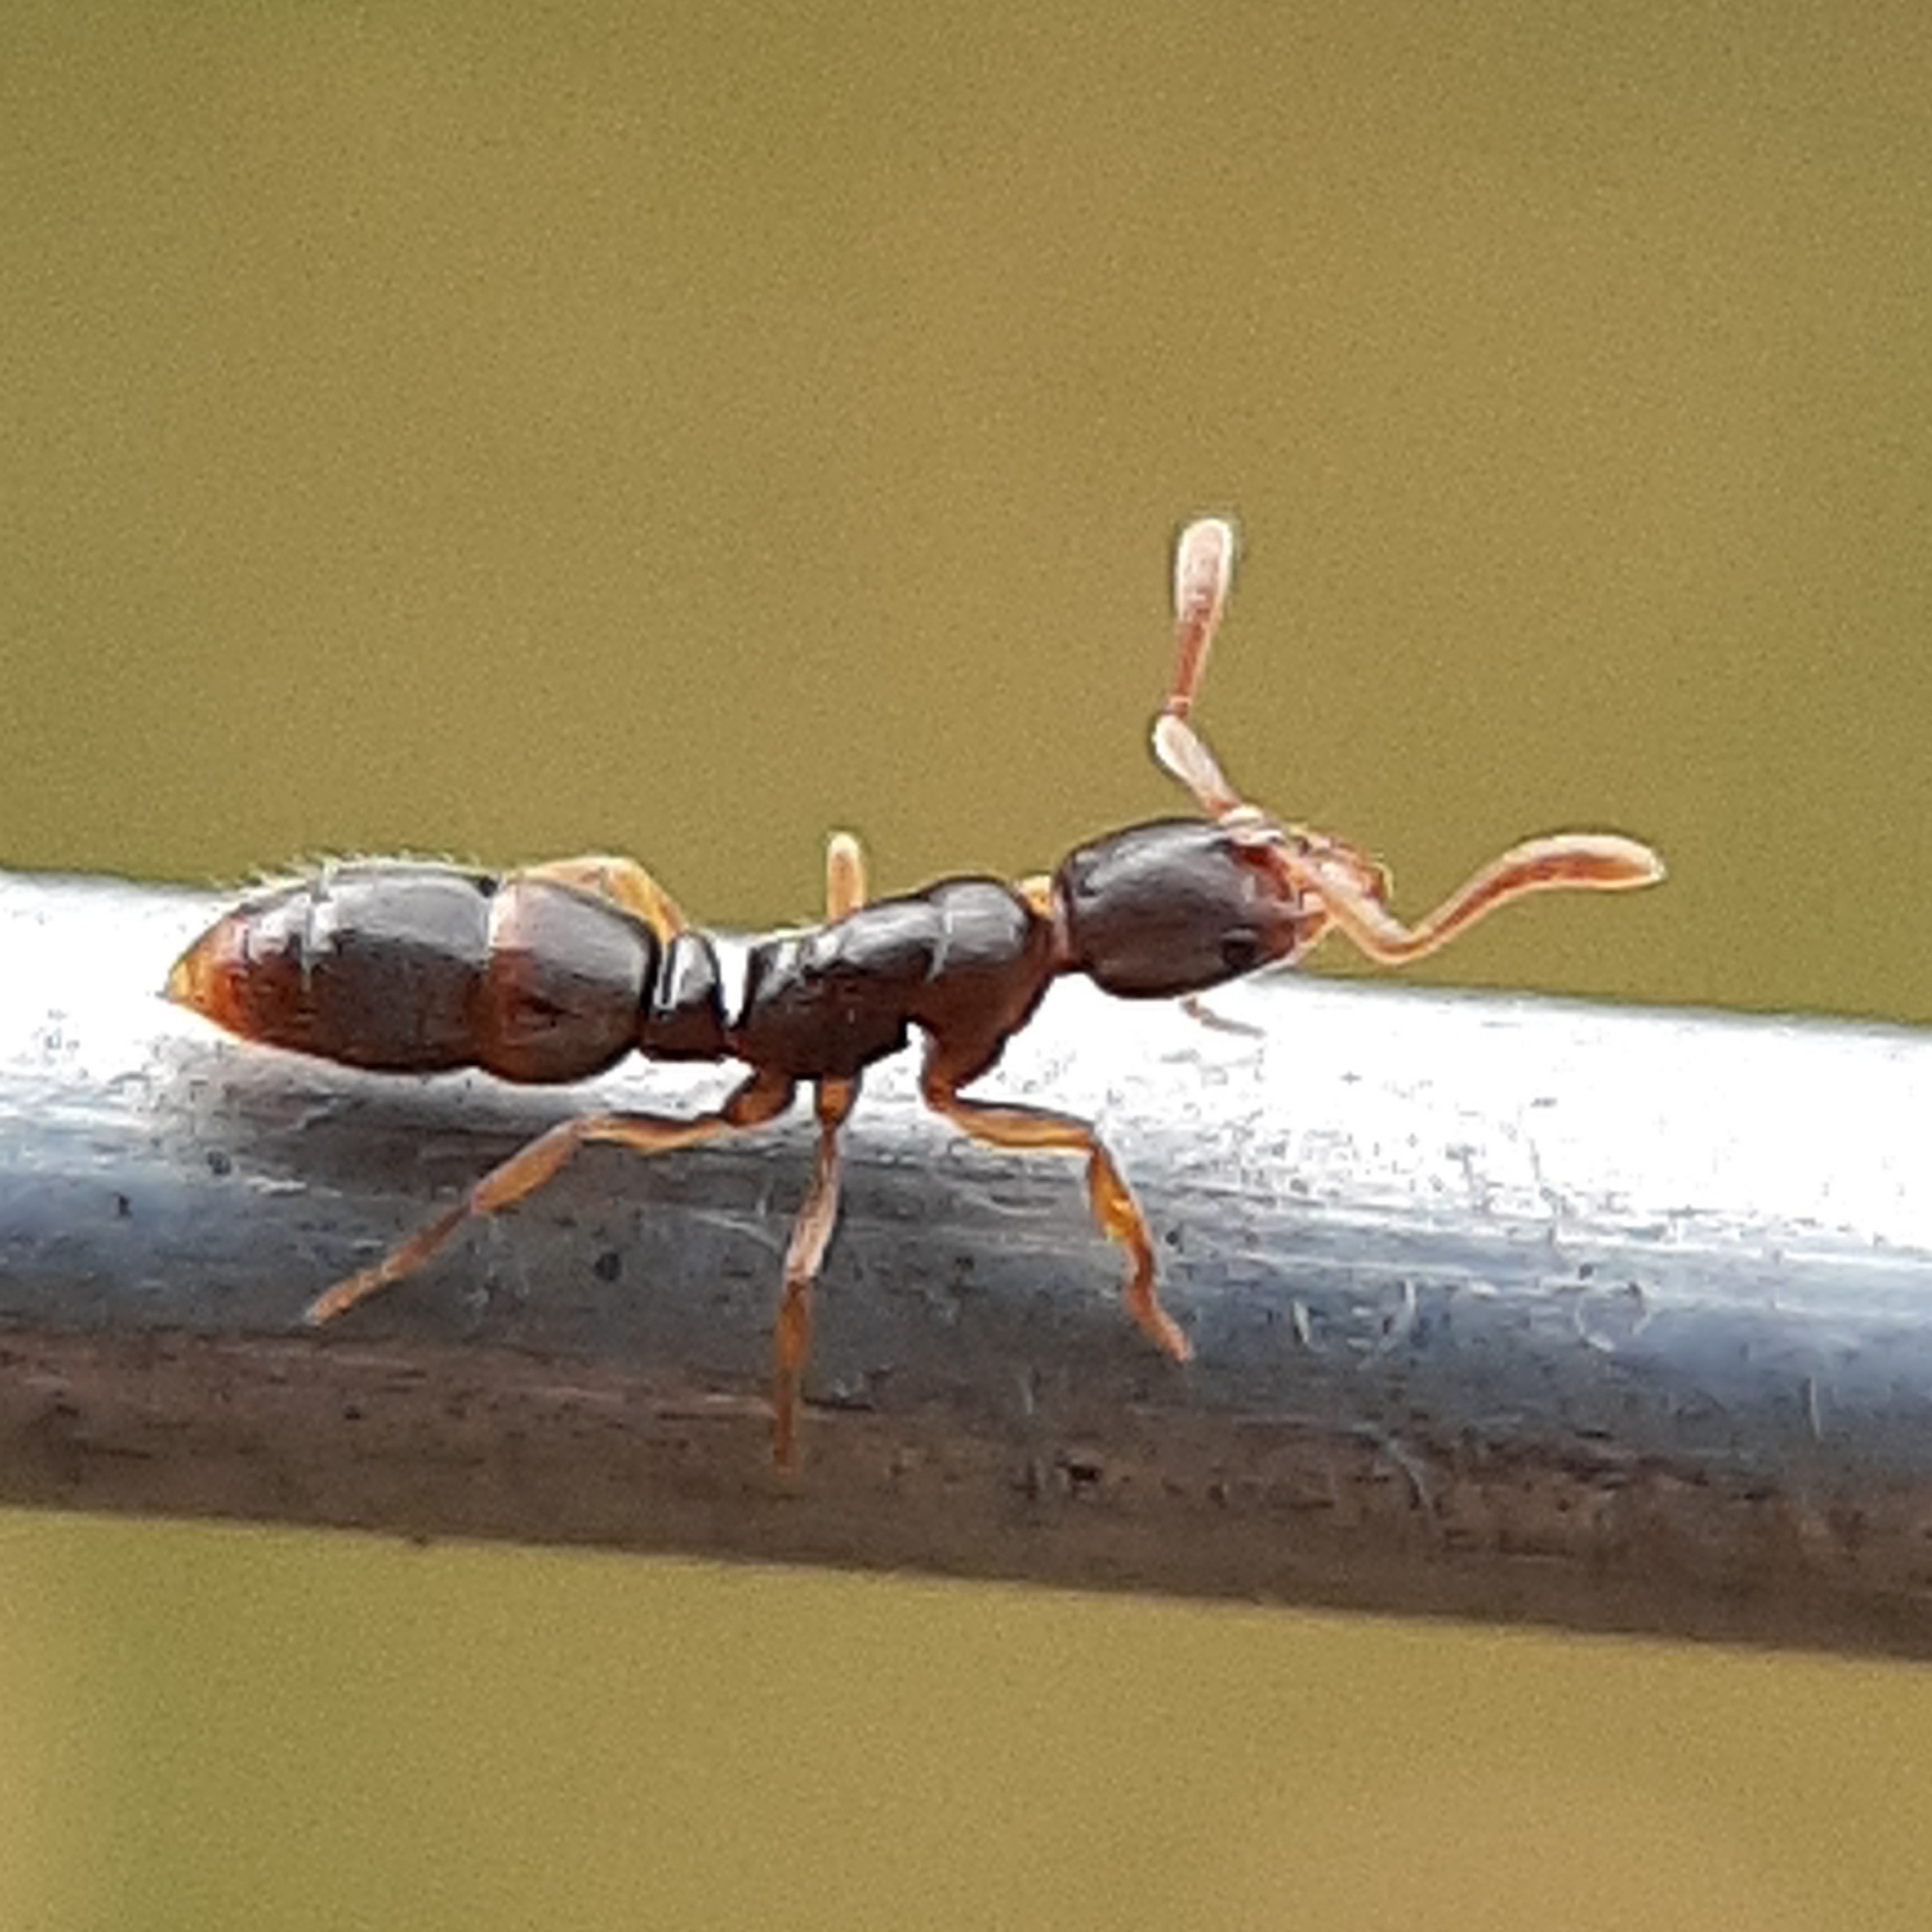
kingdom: Animalia
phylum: Arthropoda
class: Insecta
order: Hymenoptera
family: Formicidae
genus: Ponera
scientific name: Ponera pennsylvanica
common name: Pennsylvania ponera
